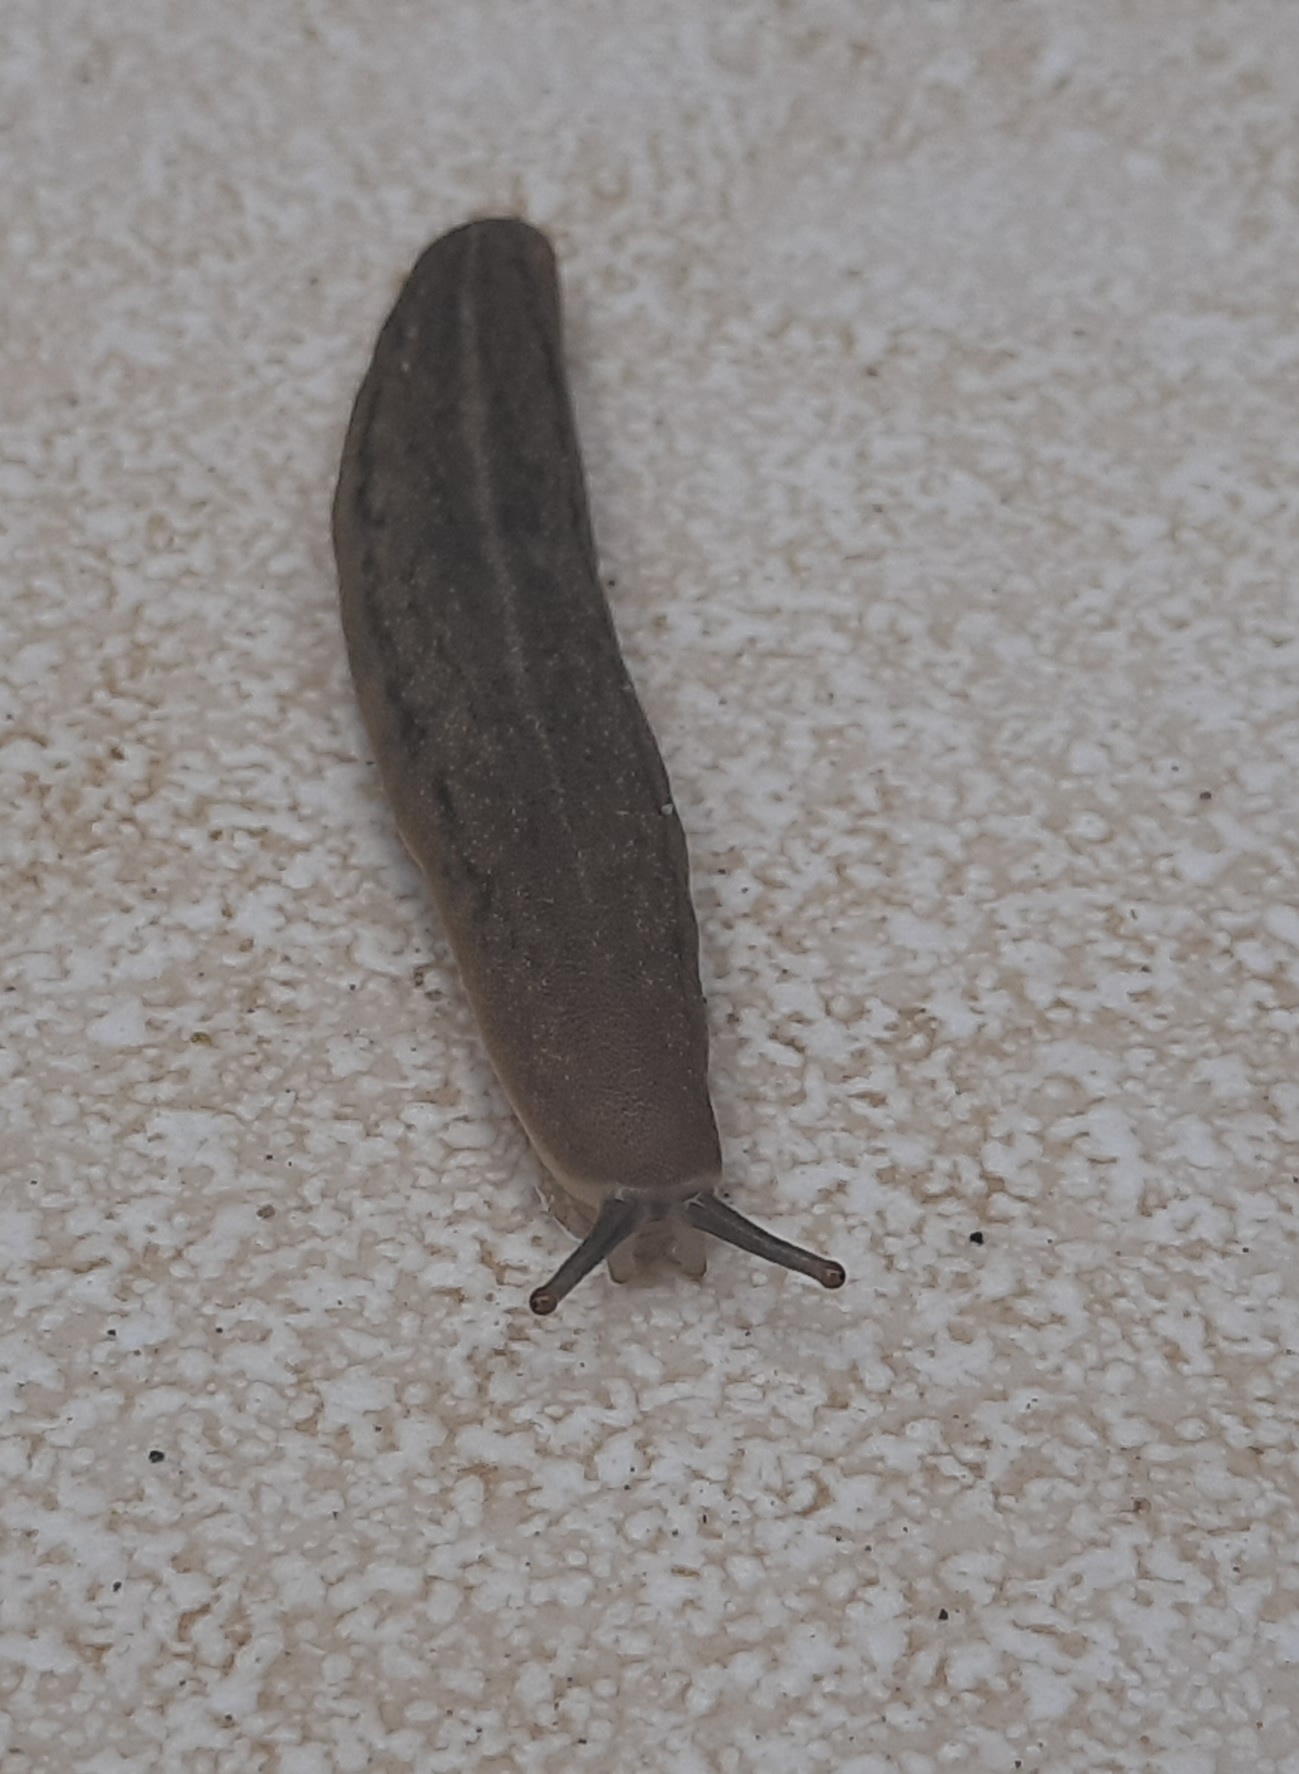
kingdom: Animalia
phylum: Mollusca
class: Gastropoda
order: Systellommatophora
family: Veronicellidae
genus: Laevicaulis
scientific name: Laevicaulis alte
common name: Tropical leatherleaf
